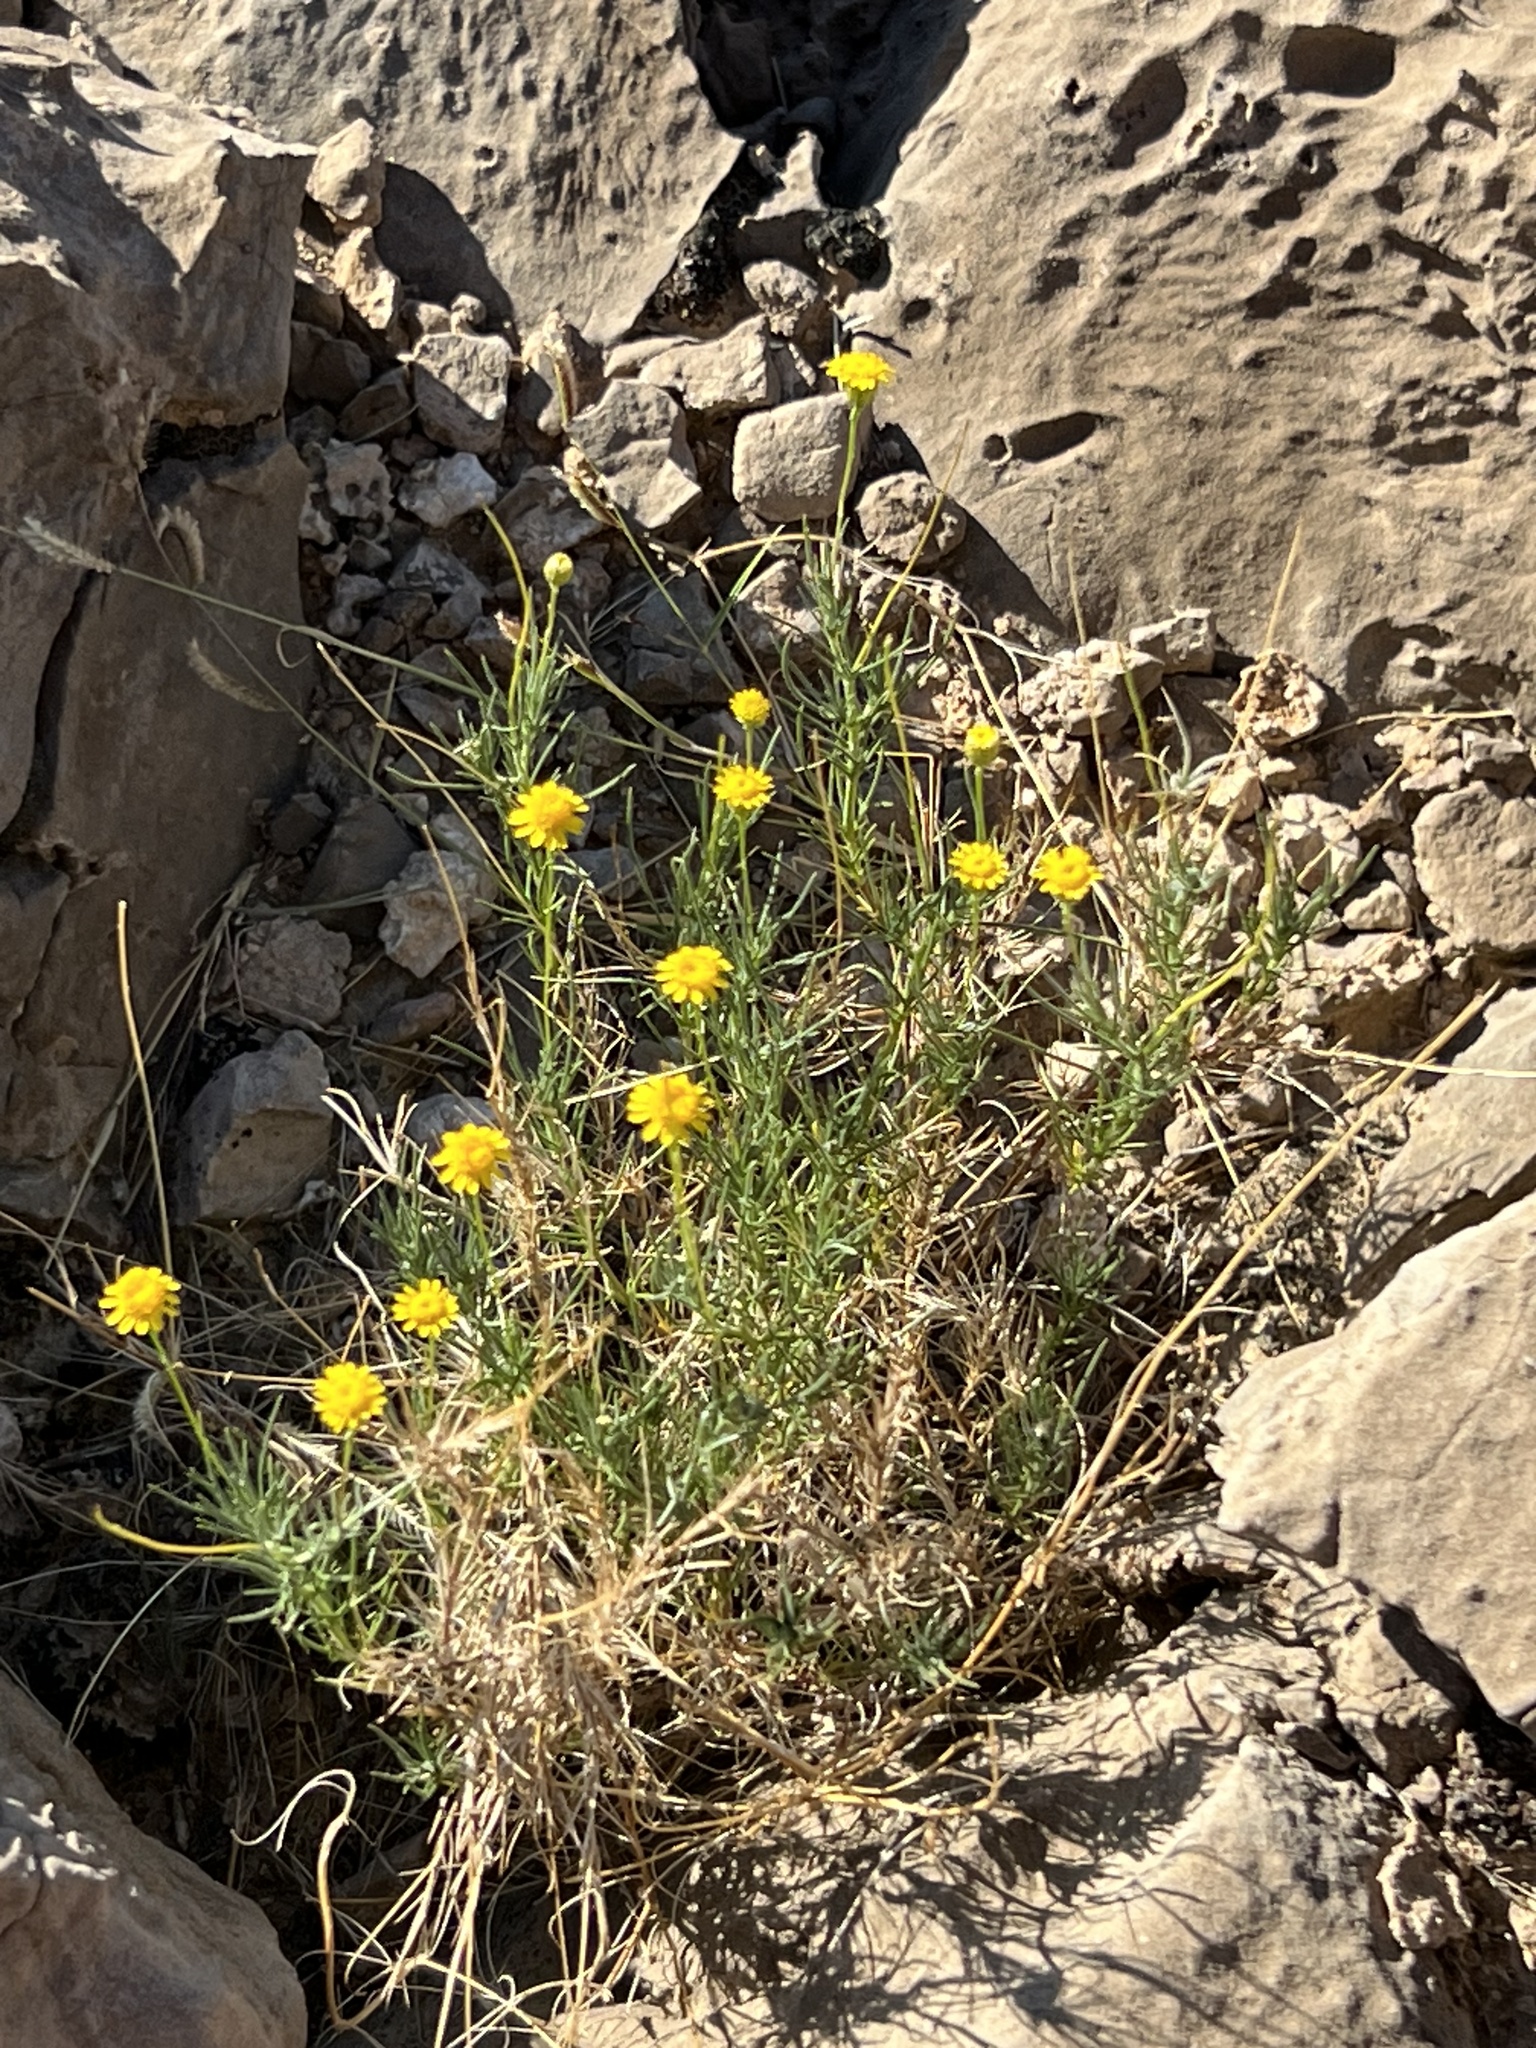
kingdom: Plantae
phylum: Tracheophyta
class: Magnoliopsida
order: Asterales
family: Asteraceae
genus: Thymophylla
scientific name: Thymophylla pentachaeta
